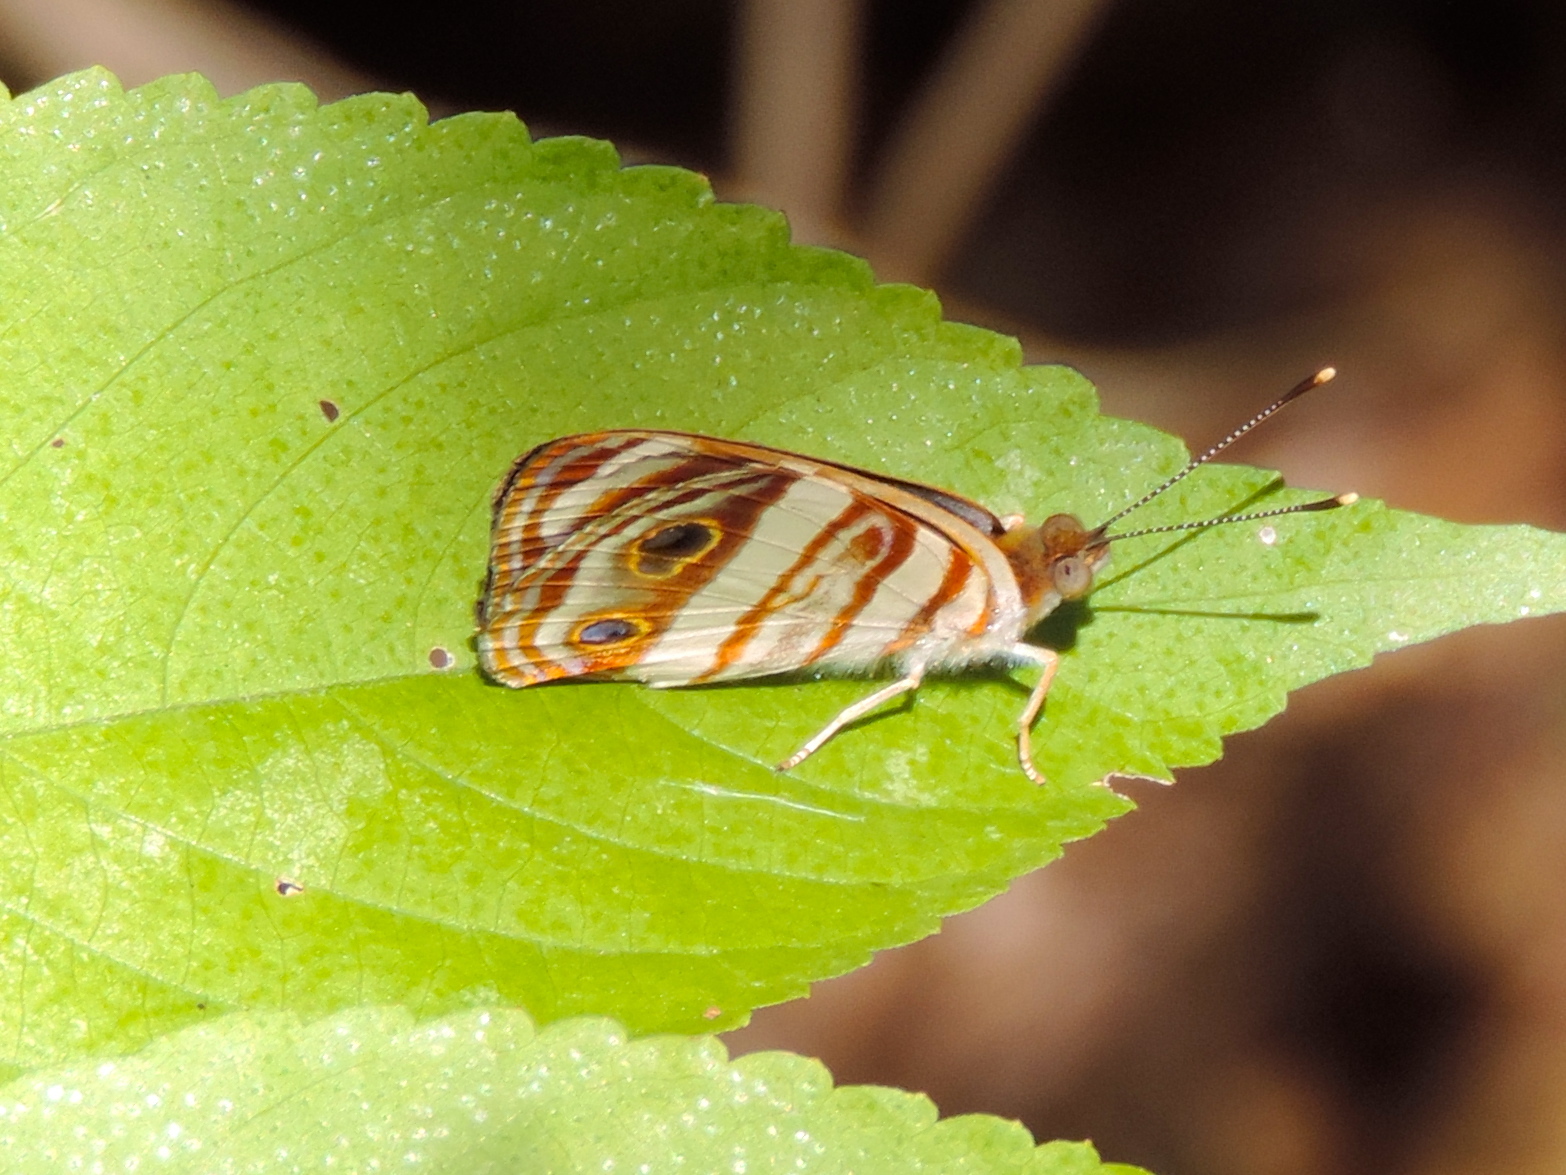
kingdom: Animalia
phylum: Arthropoda
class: Insecta
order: Lepidoptera
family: Nymphalidae
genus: Dynamine
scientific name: Dynamine mylitta
